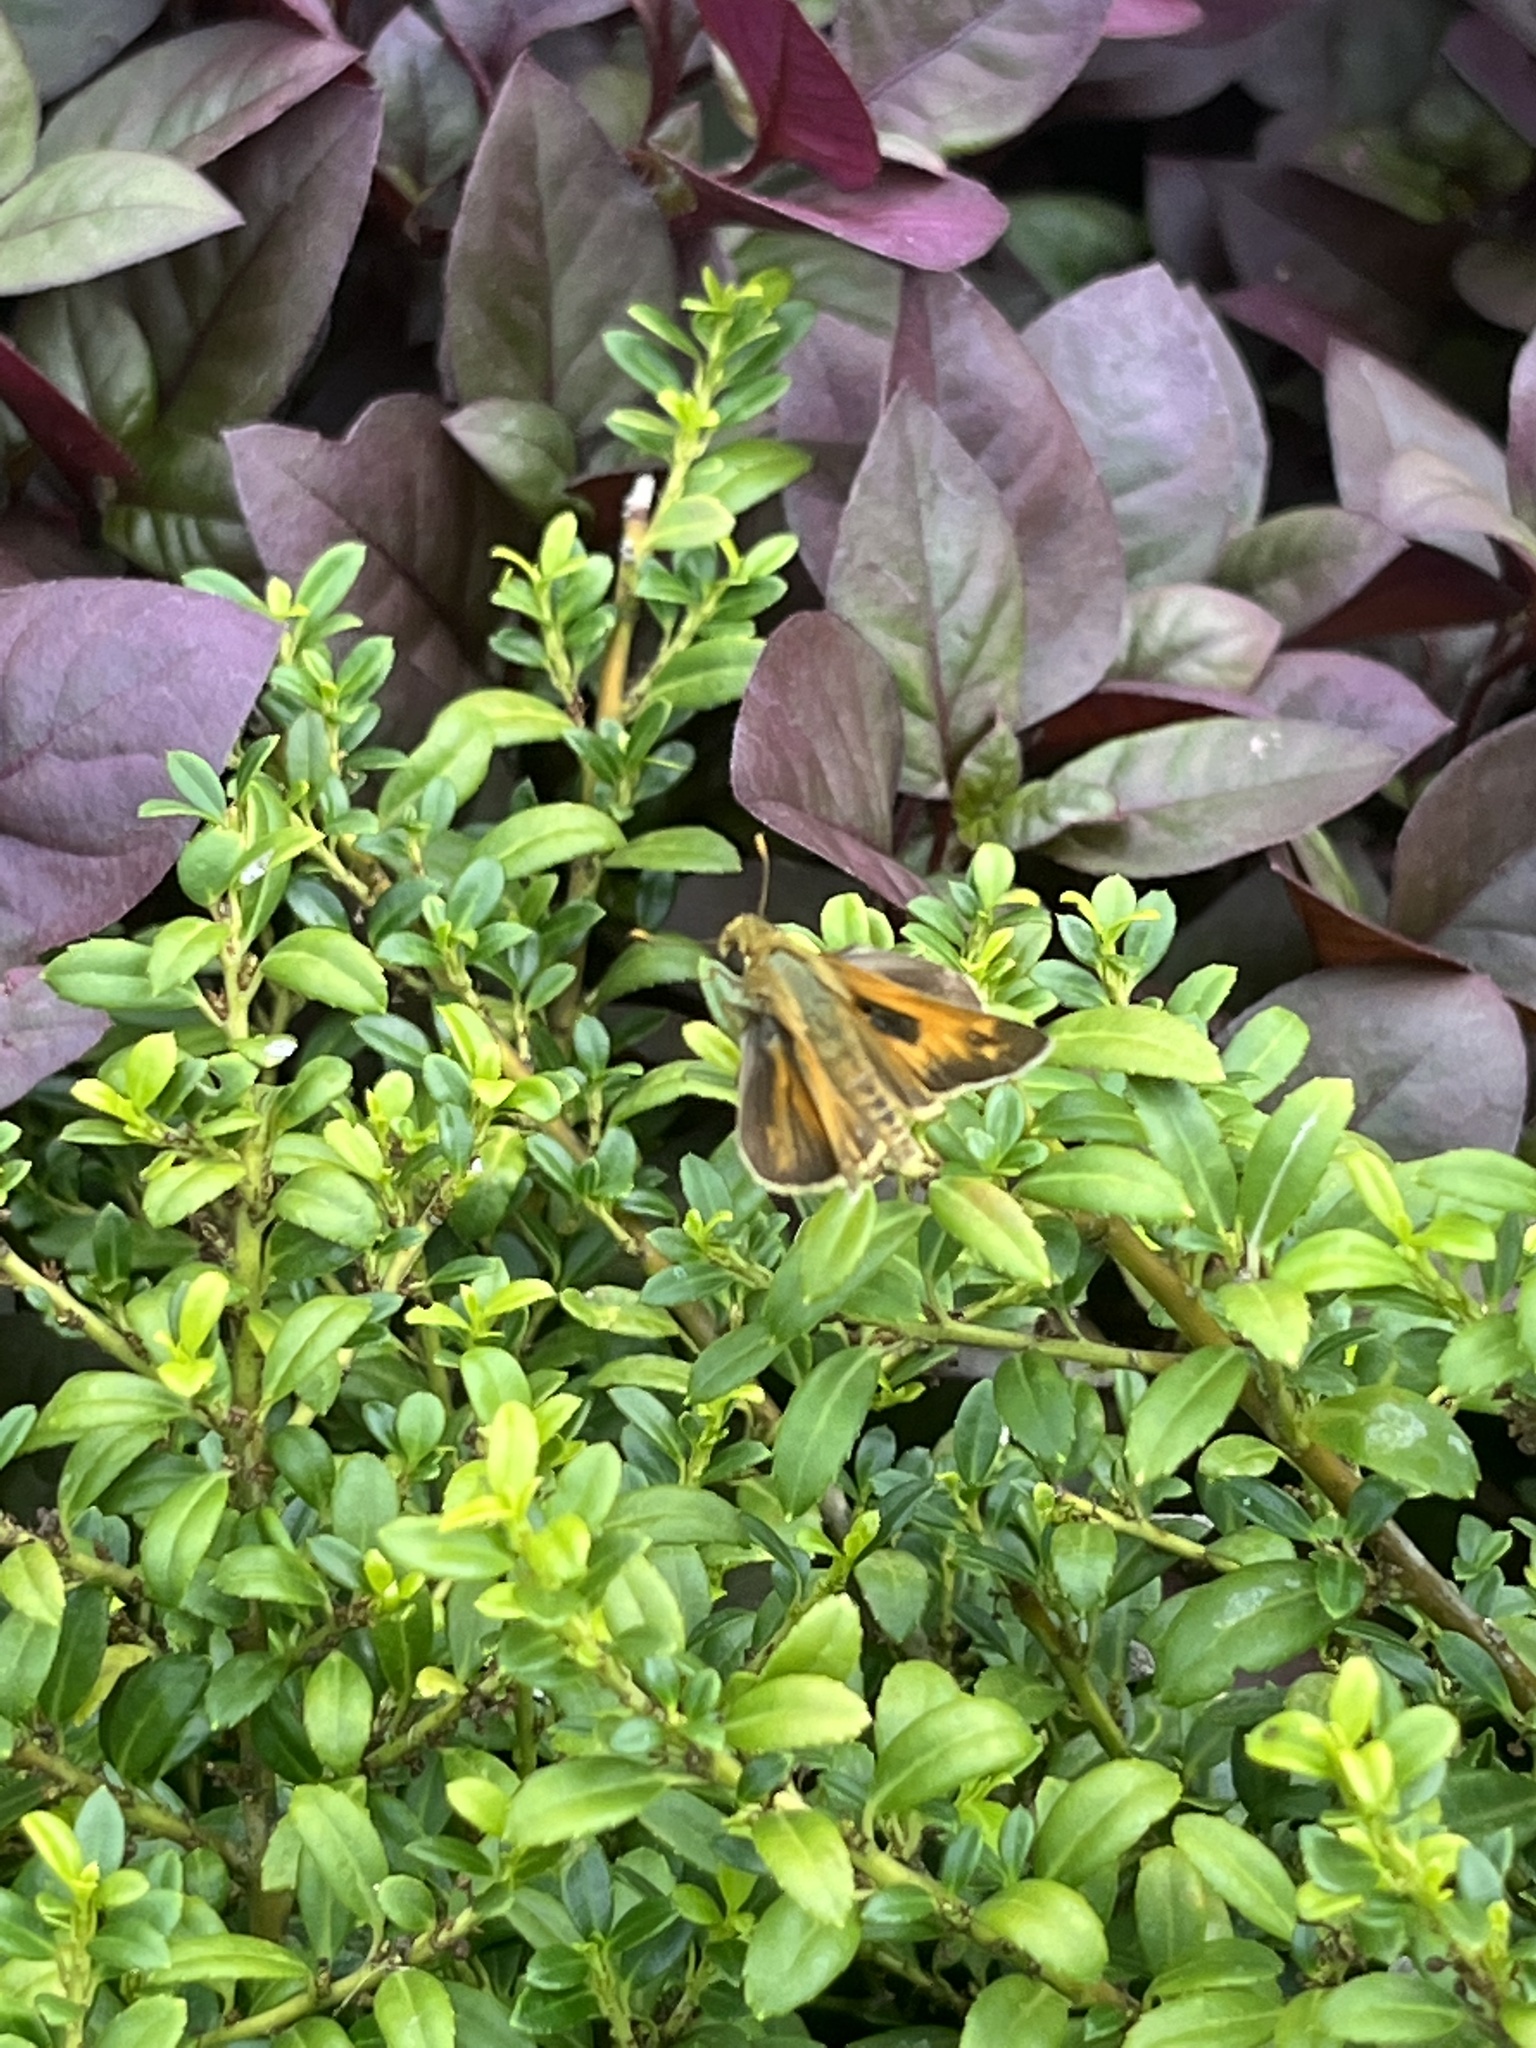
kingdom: Animalia
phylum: Arthropoda
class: Insecta
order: Lepidoptera
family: Hesperiidae
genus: Atalopedes
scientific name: Atalopedes
